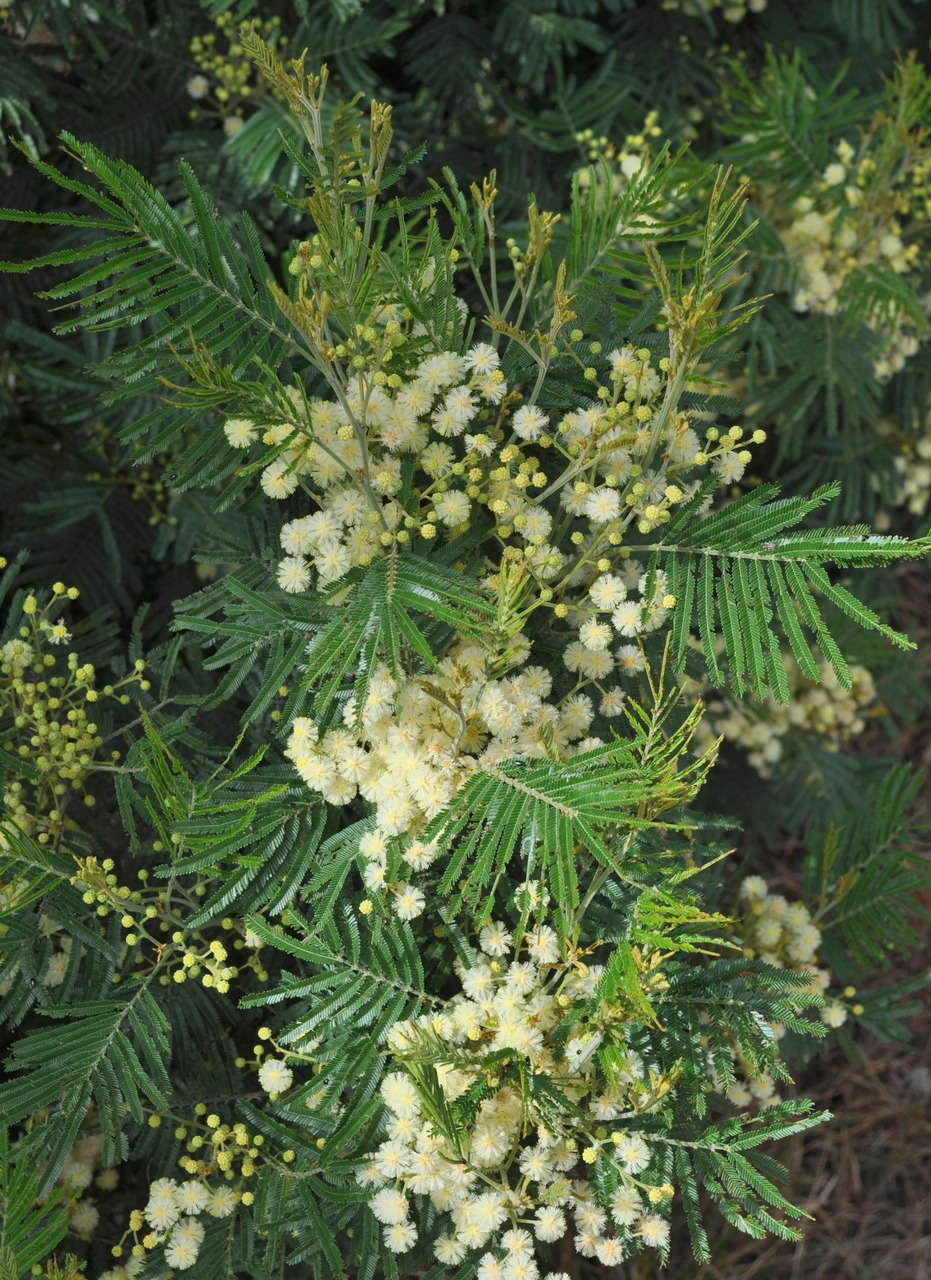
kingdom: Plantae
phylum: Tracheophyta
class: Magnoliopsida
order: Fabales
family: Fabaceae
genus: Acacia
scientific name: Acacia mearnsii
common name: Black wattle
